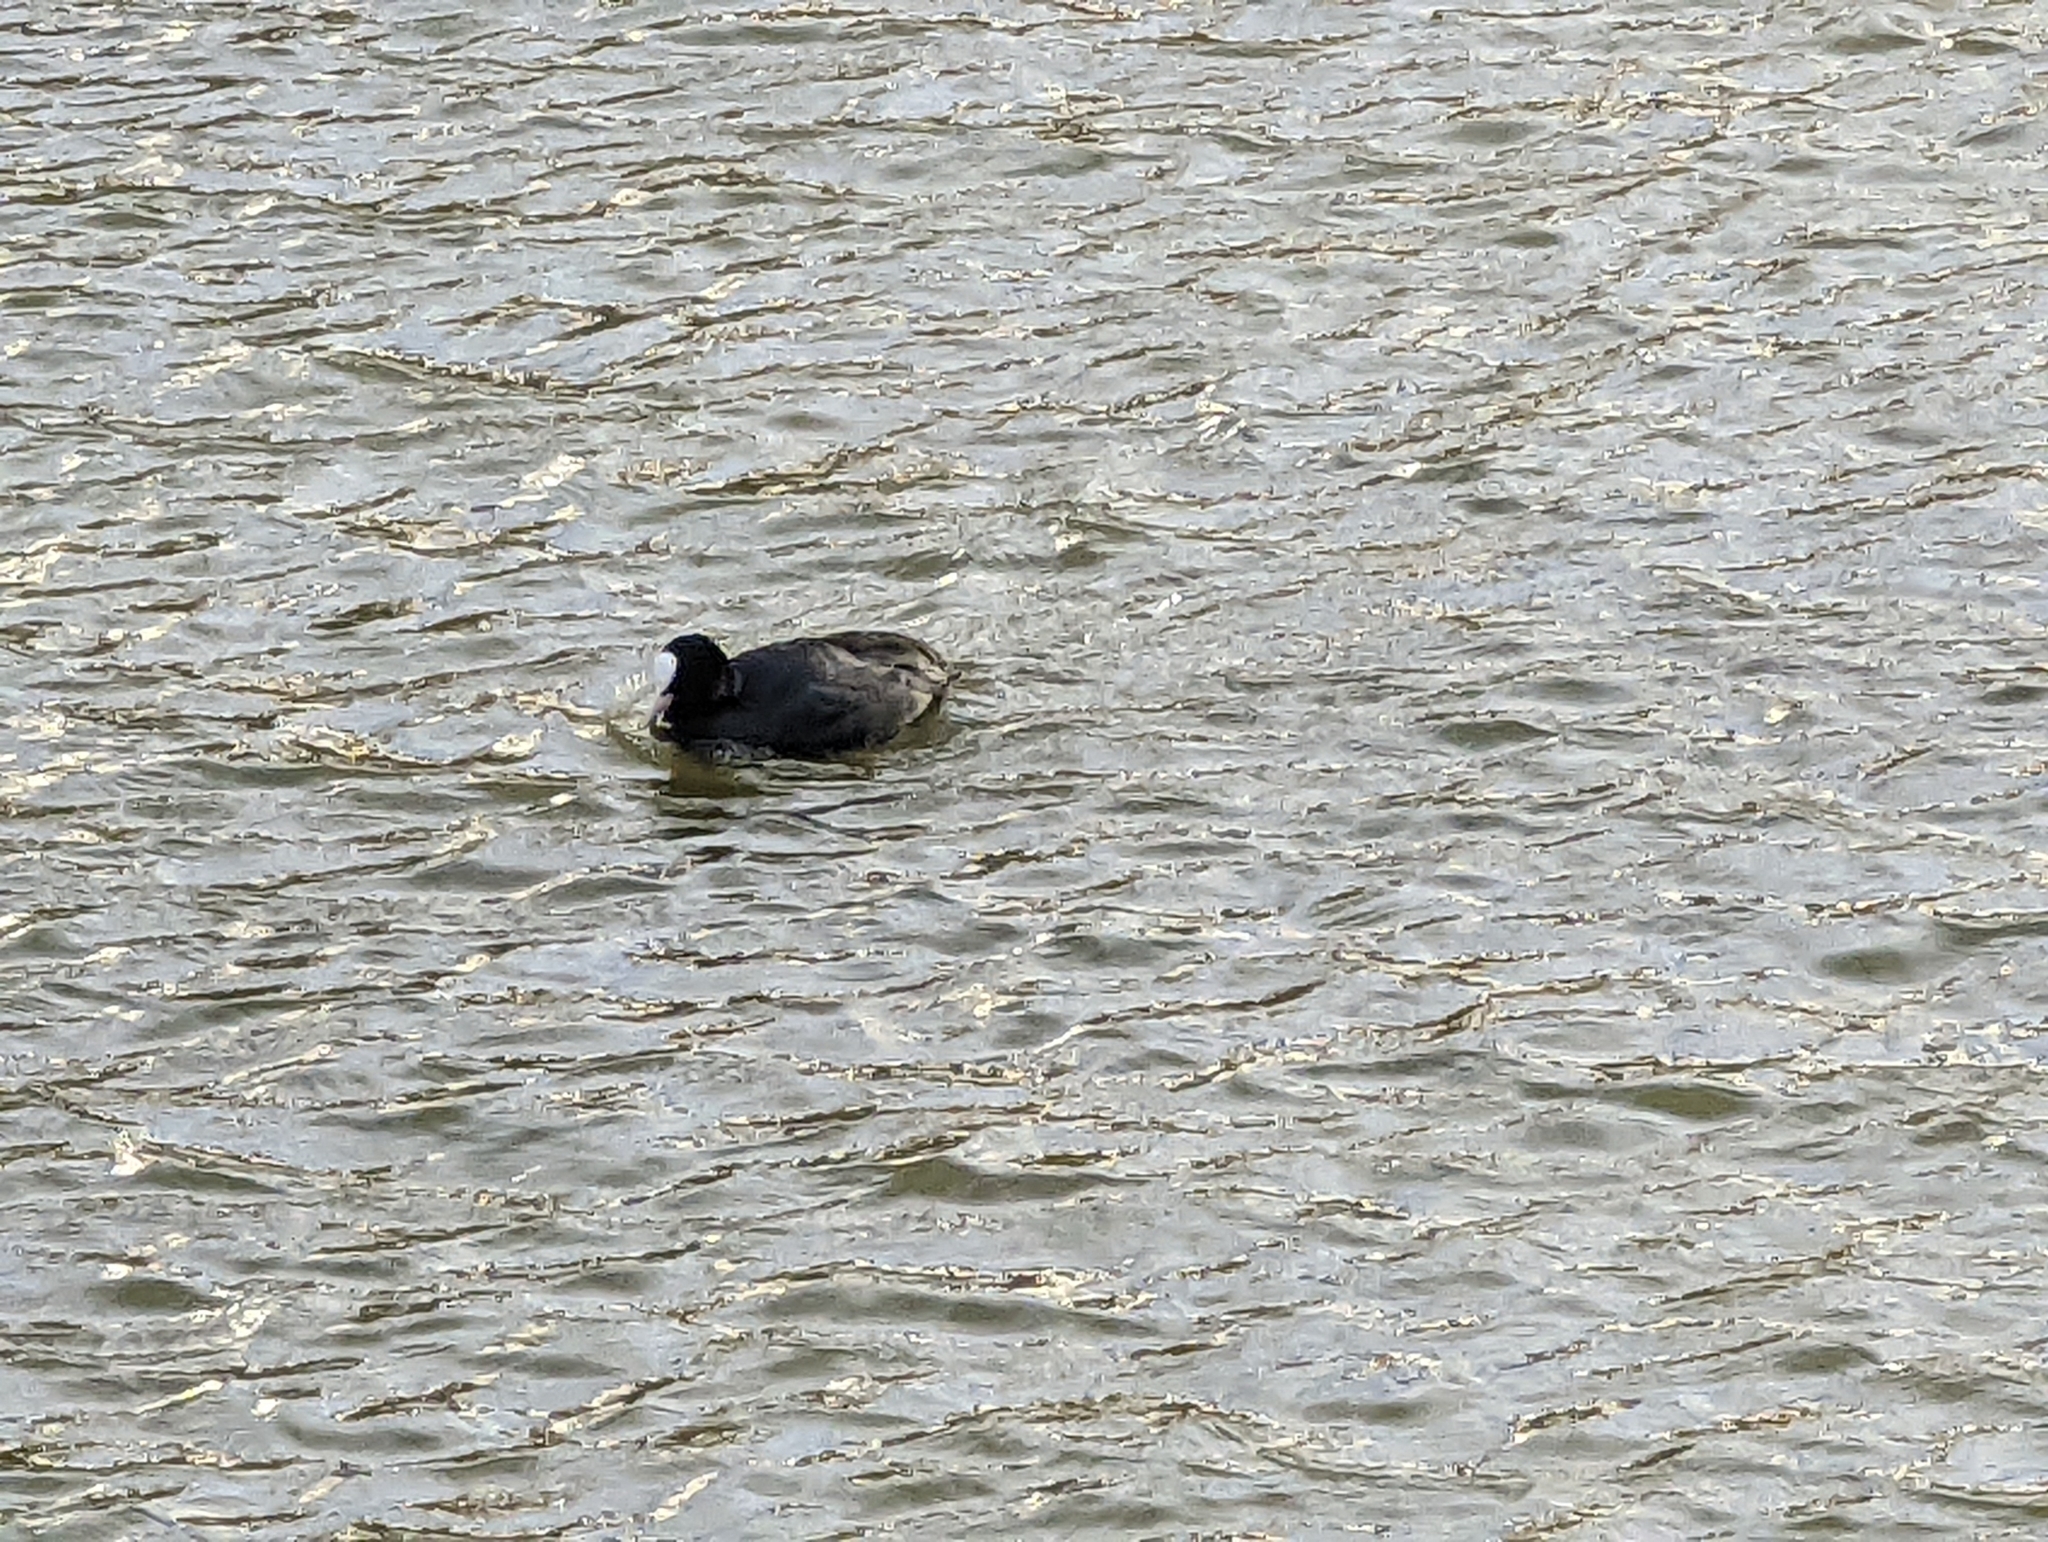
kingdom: Animalia
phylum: Chordata
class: Aves
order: Gruiformes
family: Rallidae
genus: Fulica
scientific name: Fulica atra
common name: Eurasian coot
